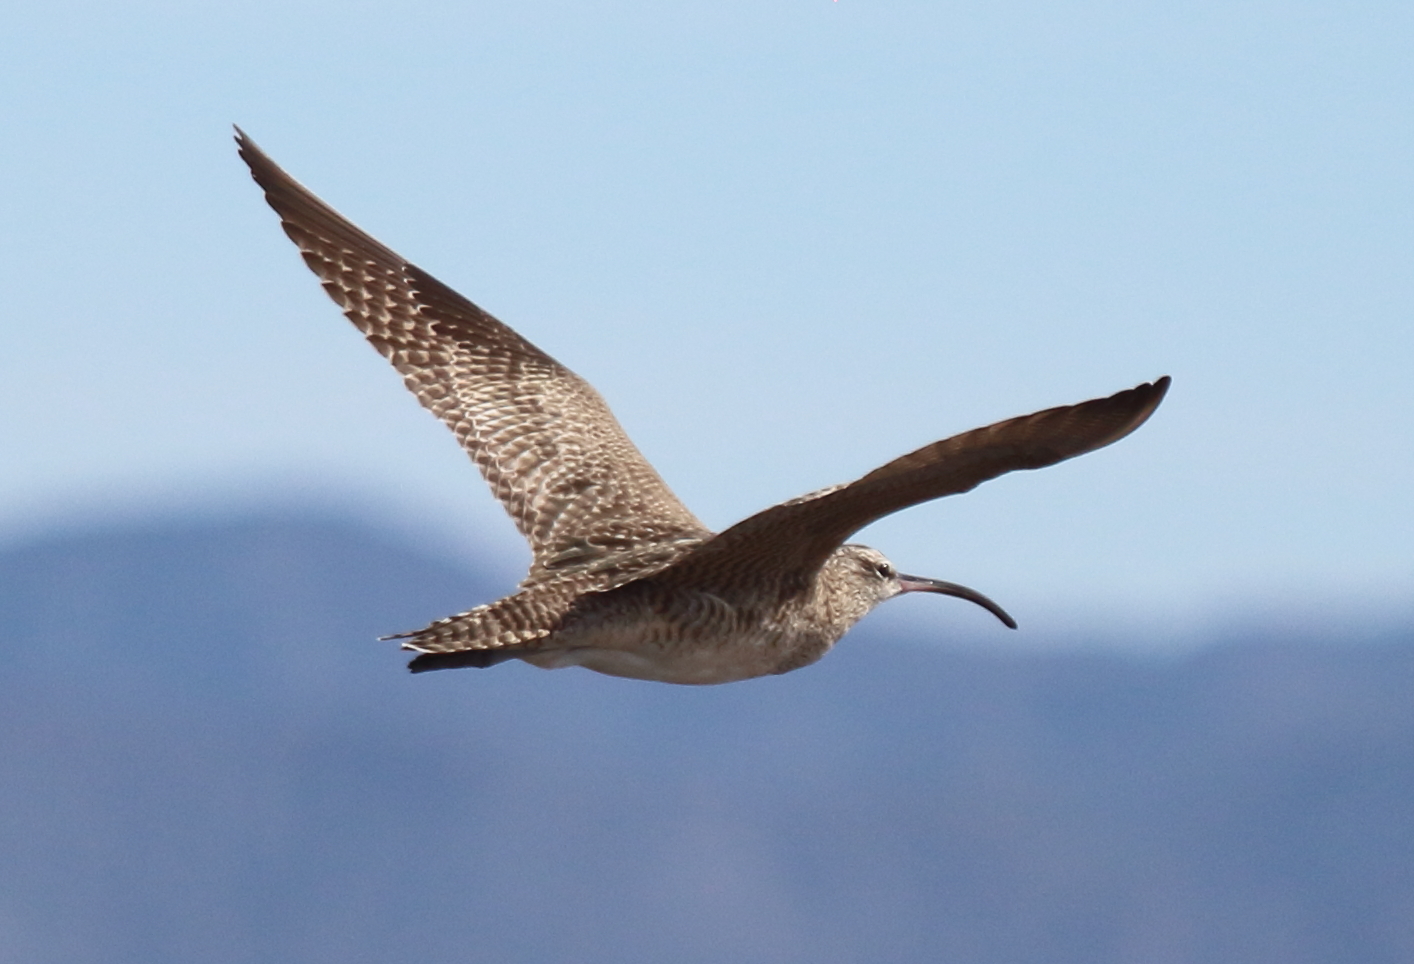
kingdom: Animalia
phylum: Chordata
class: Aves
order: Charadriiformes
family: Scolopacidae
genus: Numenius
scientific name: Numenius phaeopus
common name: Whimbrel
